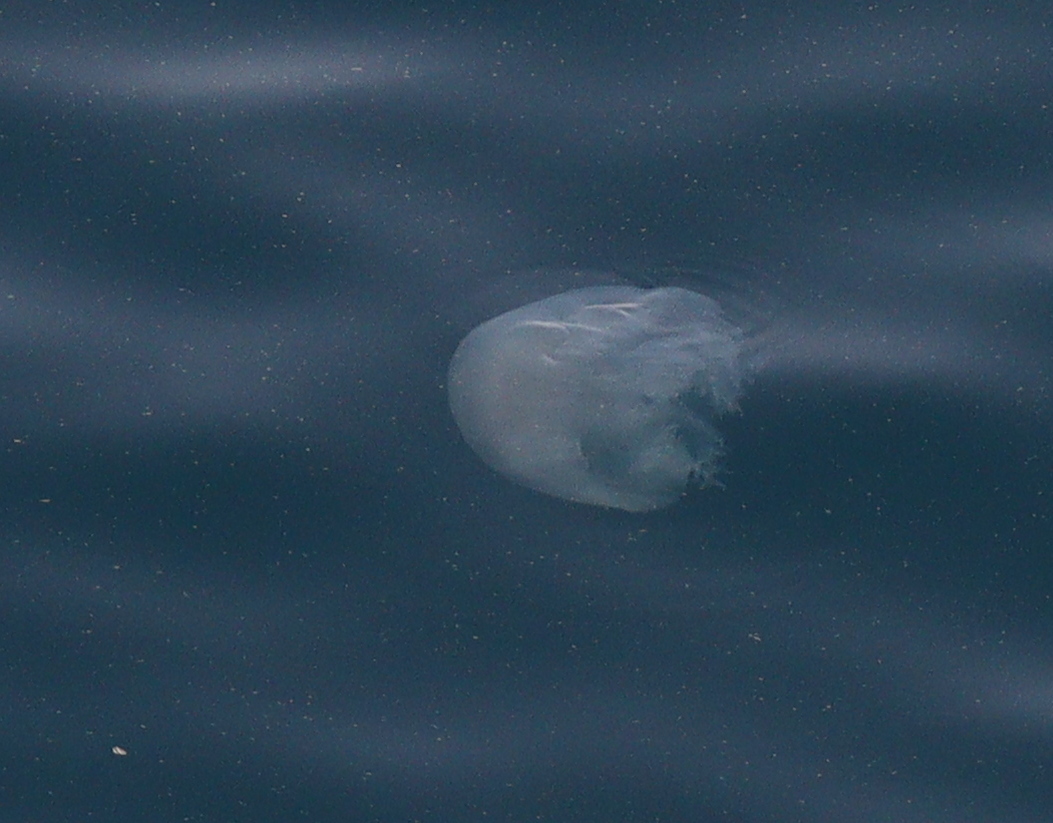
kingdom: Animalia
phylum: Cnidaria
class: Scyphozoa
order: Rhizostomeae
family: Rhizostomatidae
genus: Rhopilema
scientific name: Rhopilema nomadica
